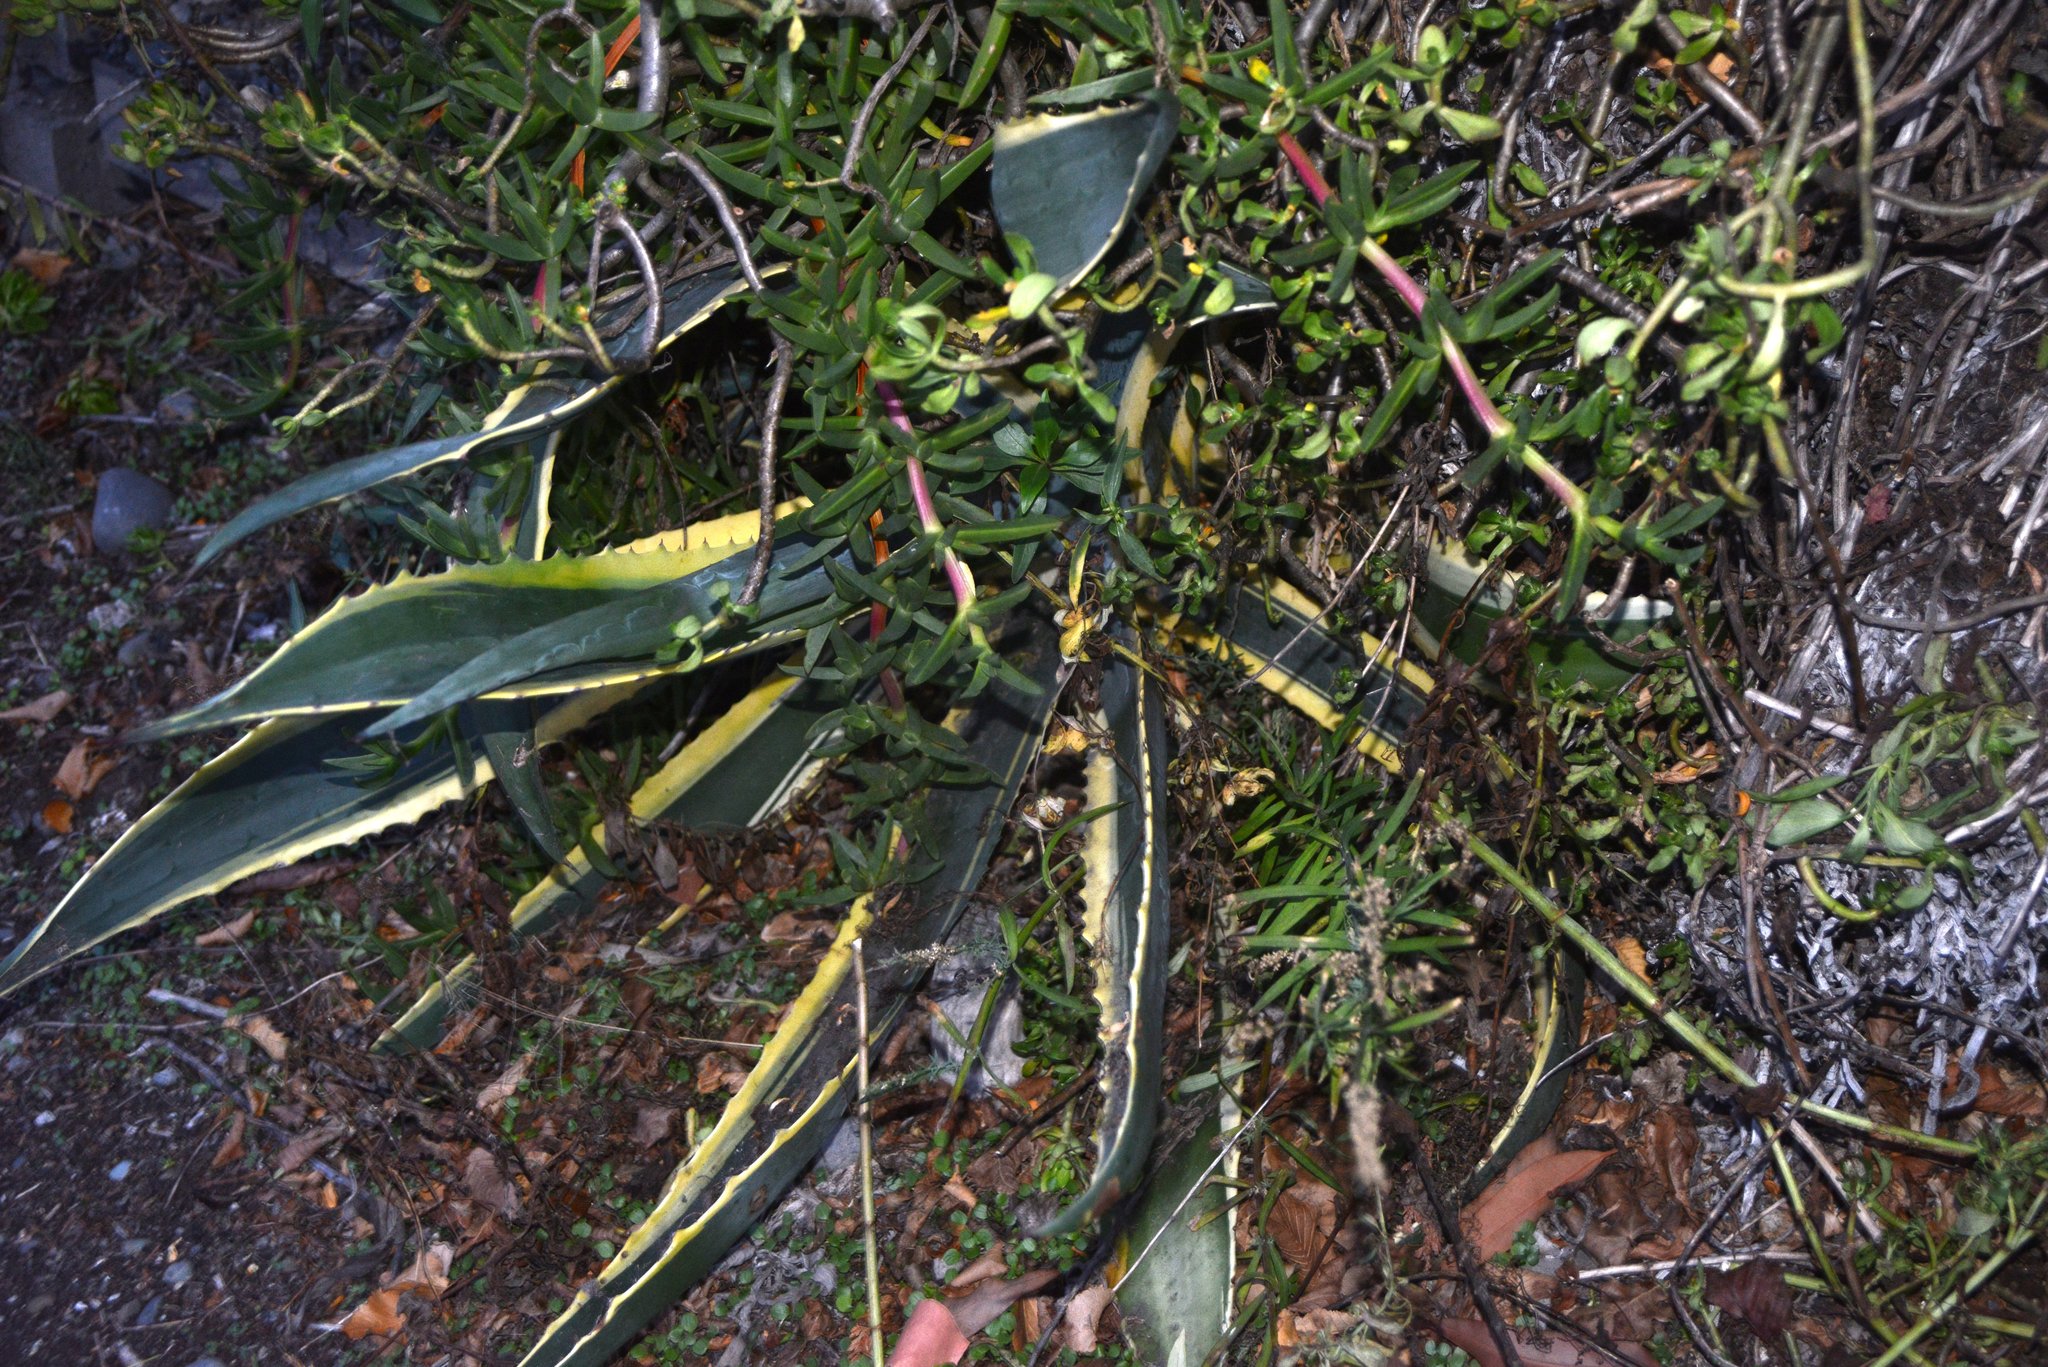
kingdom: Plantae
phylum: Tracheophyta
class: Liliopsida
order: Asparagales
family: Asparagaceae
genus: Agave
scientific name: Agave americana
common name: Centuryplant
